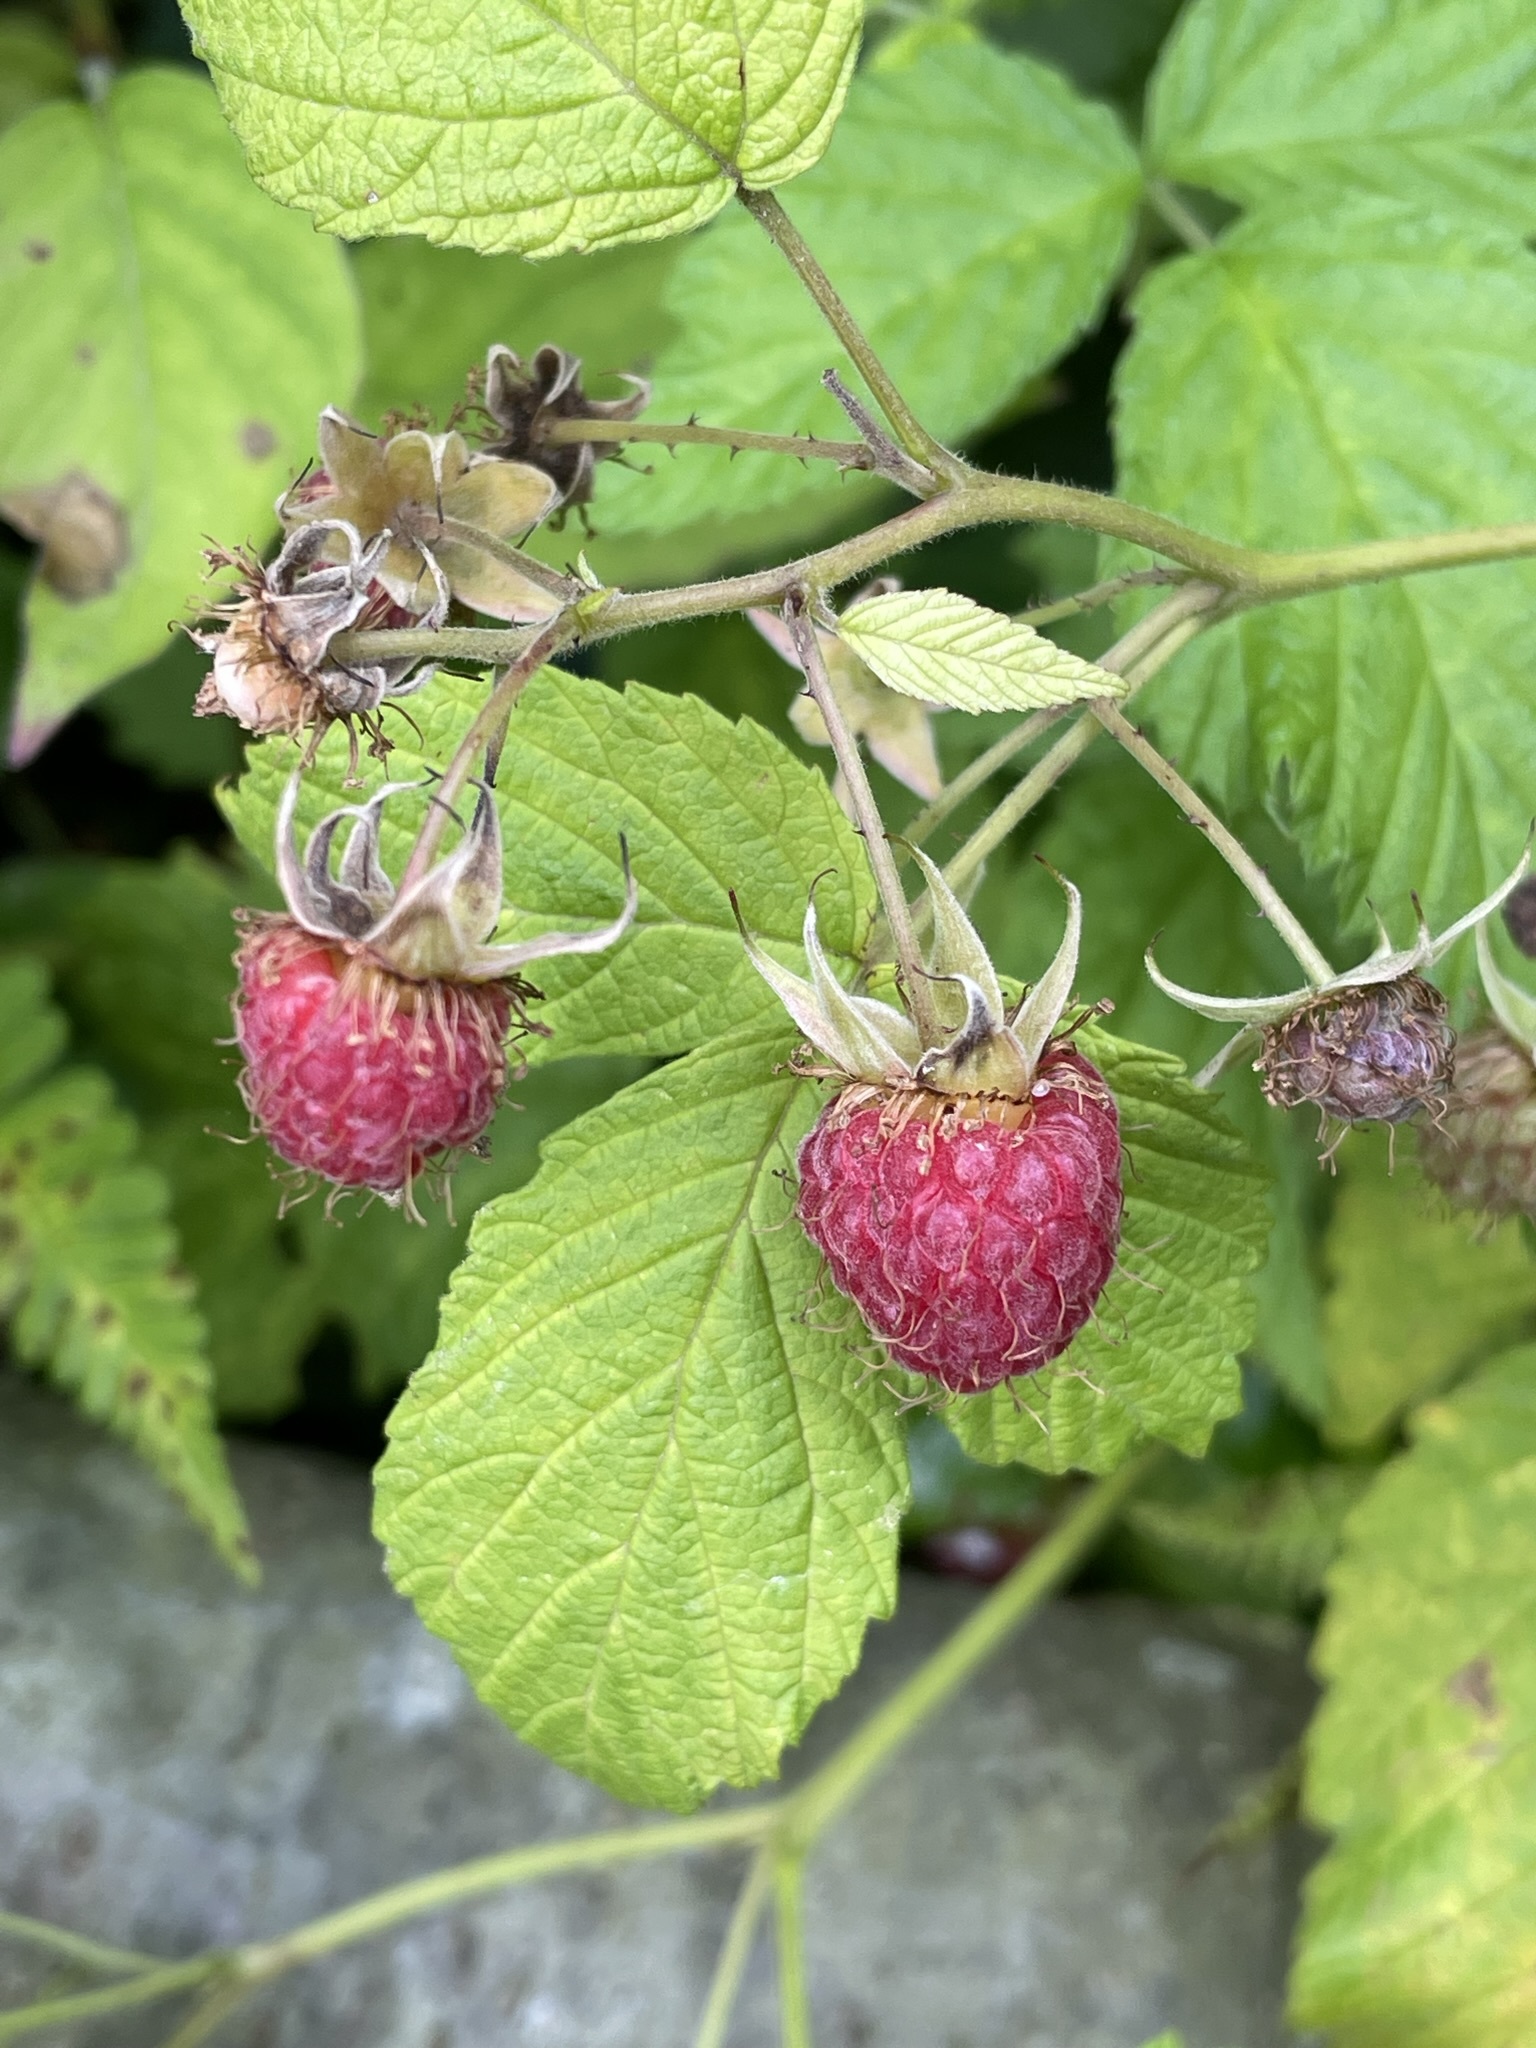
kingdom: Plantae
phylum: Tracheophyta
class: Magnoliopsida
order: Rosales
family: Rosaceae
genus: Rubus
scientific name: Rubus idaeus
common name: Raspberry
